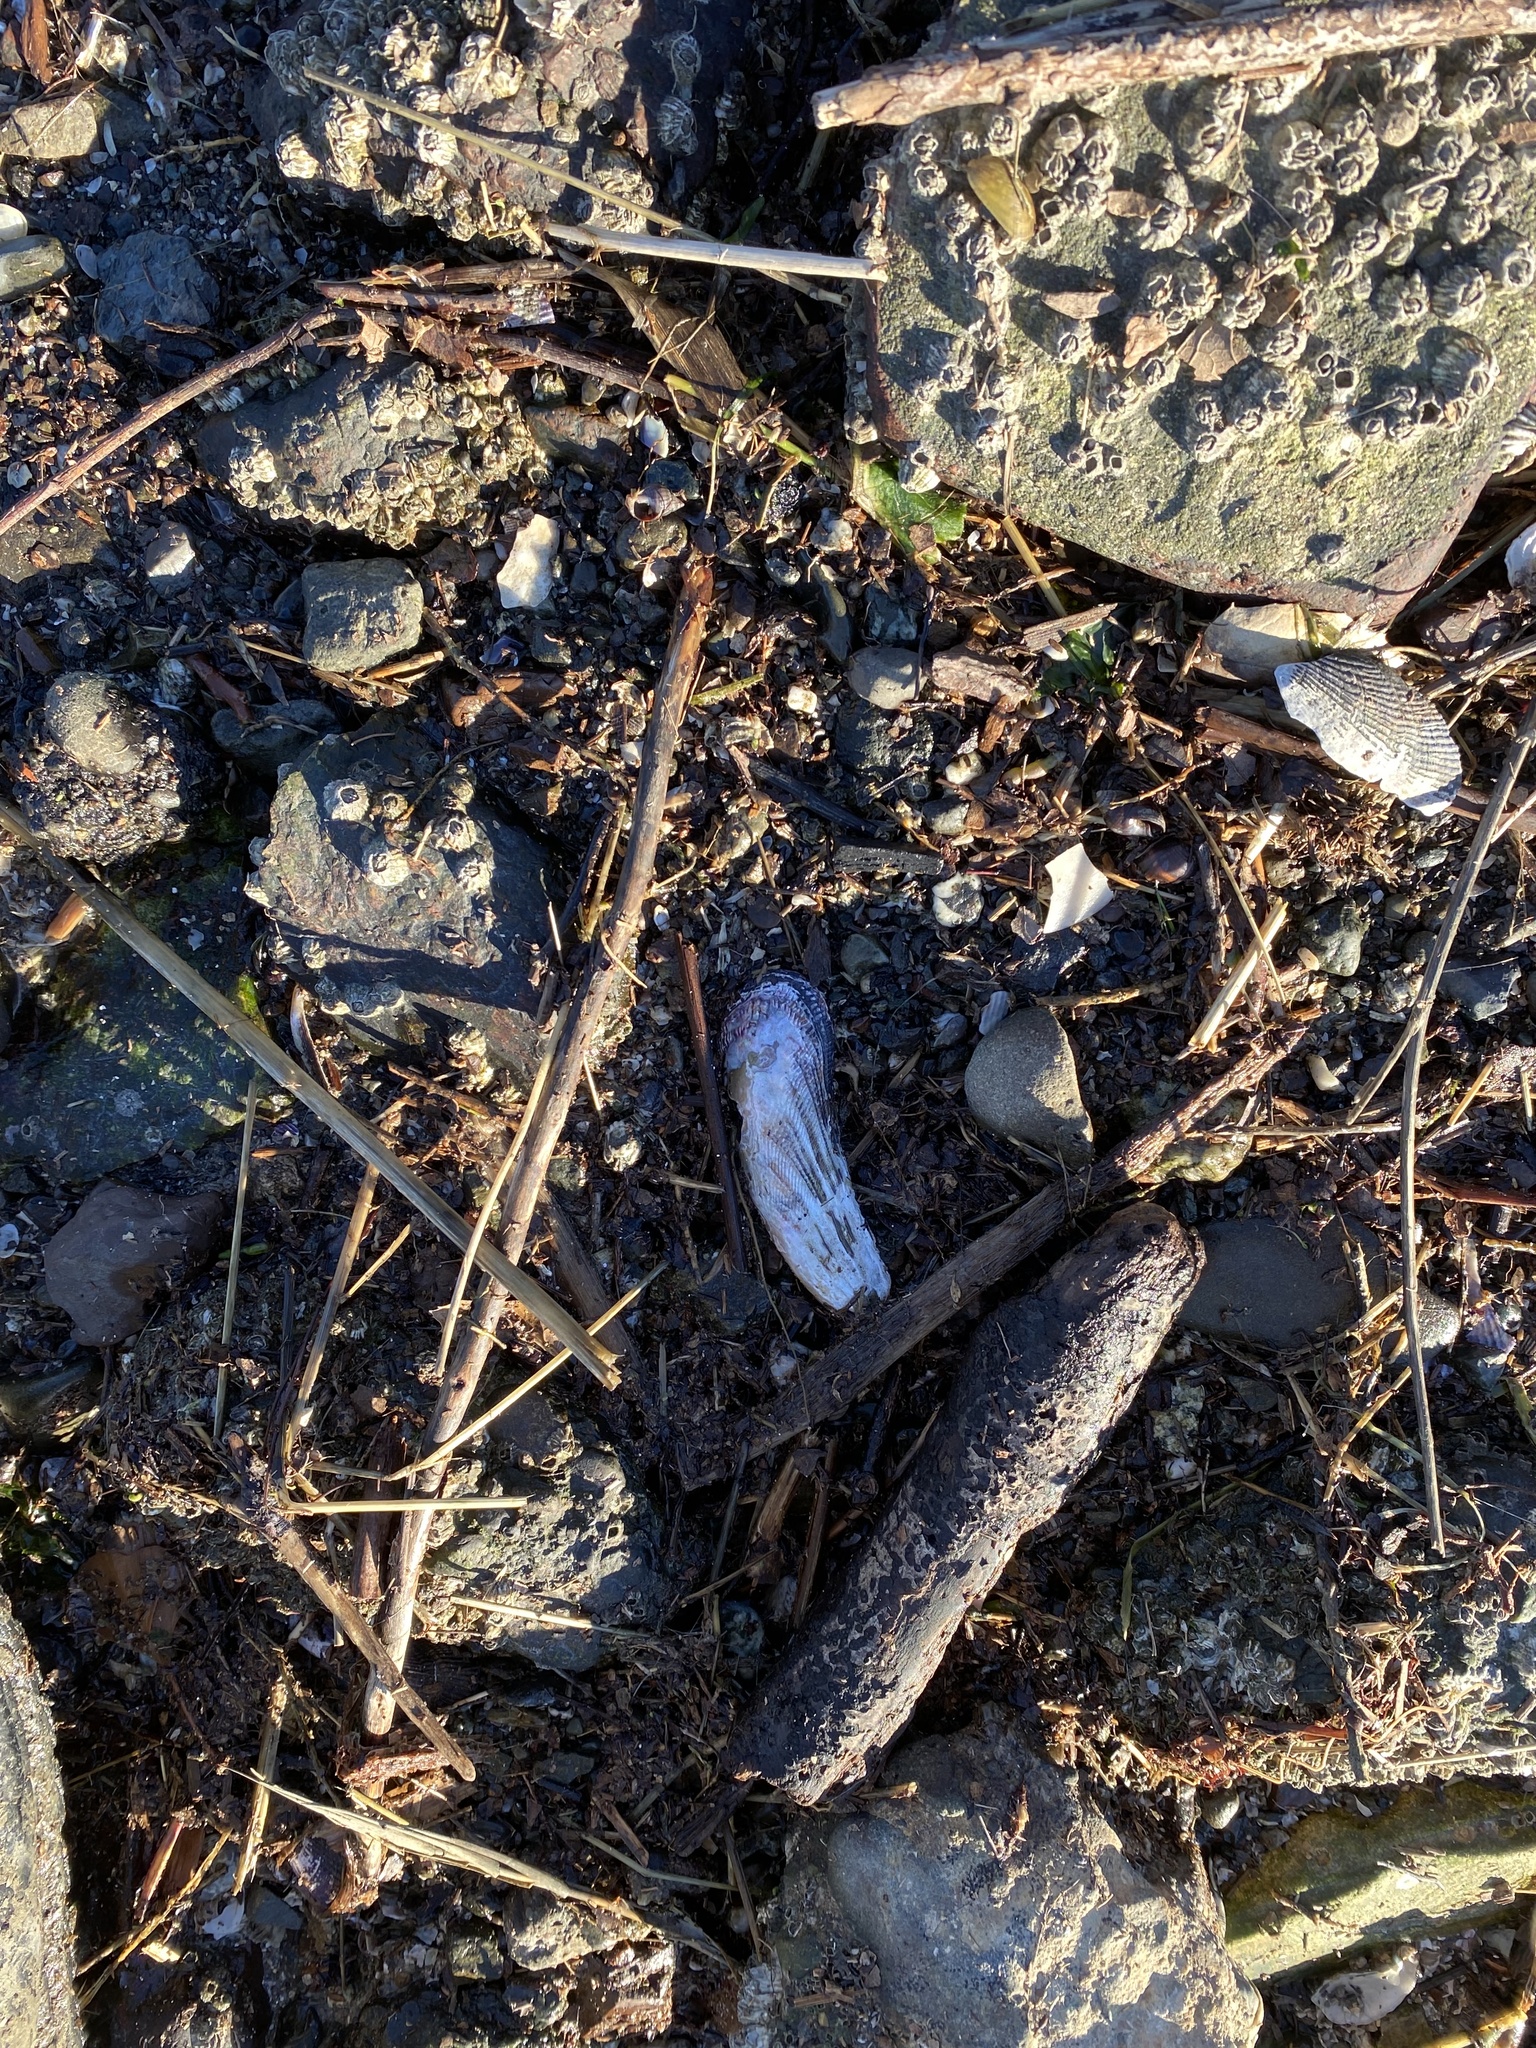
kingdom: Animalia
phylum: Mollusca
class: Bivalvia
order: Mytilida
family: Mytilidae
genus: Geukensia
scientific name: Geukensia demissa
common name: Ribbed mussel
